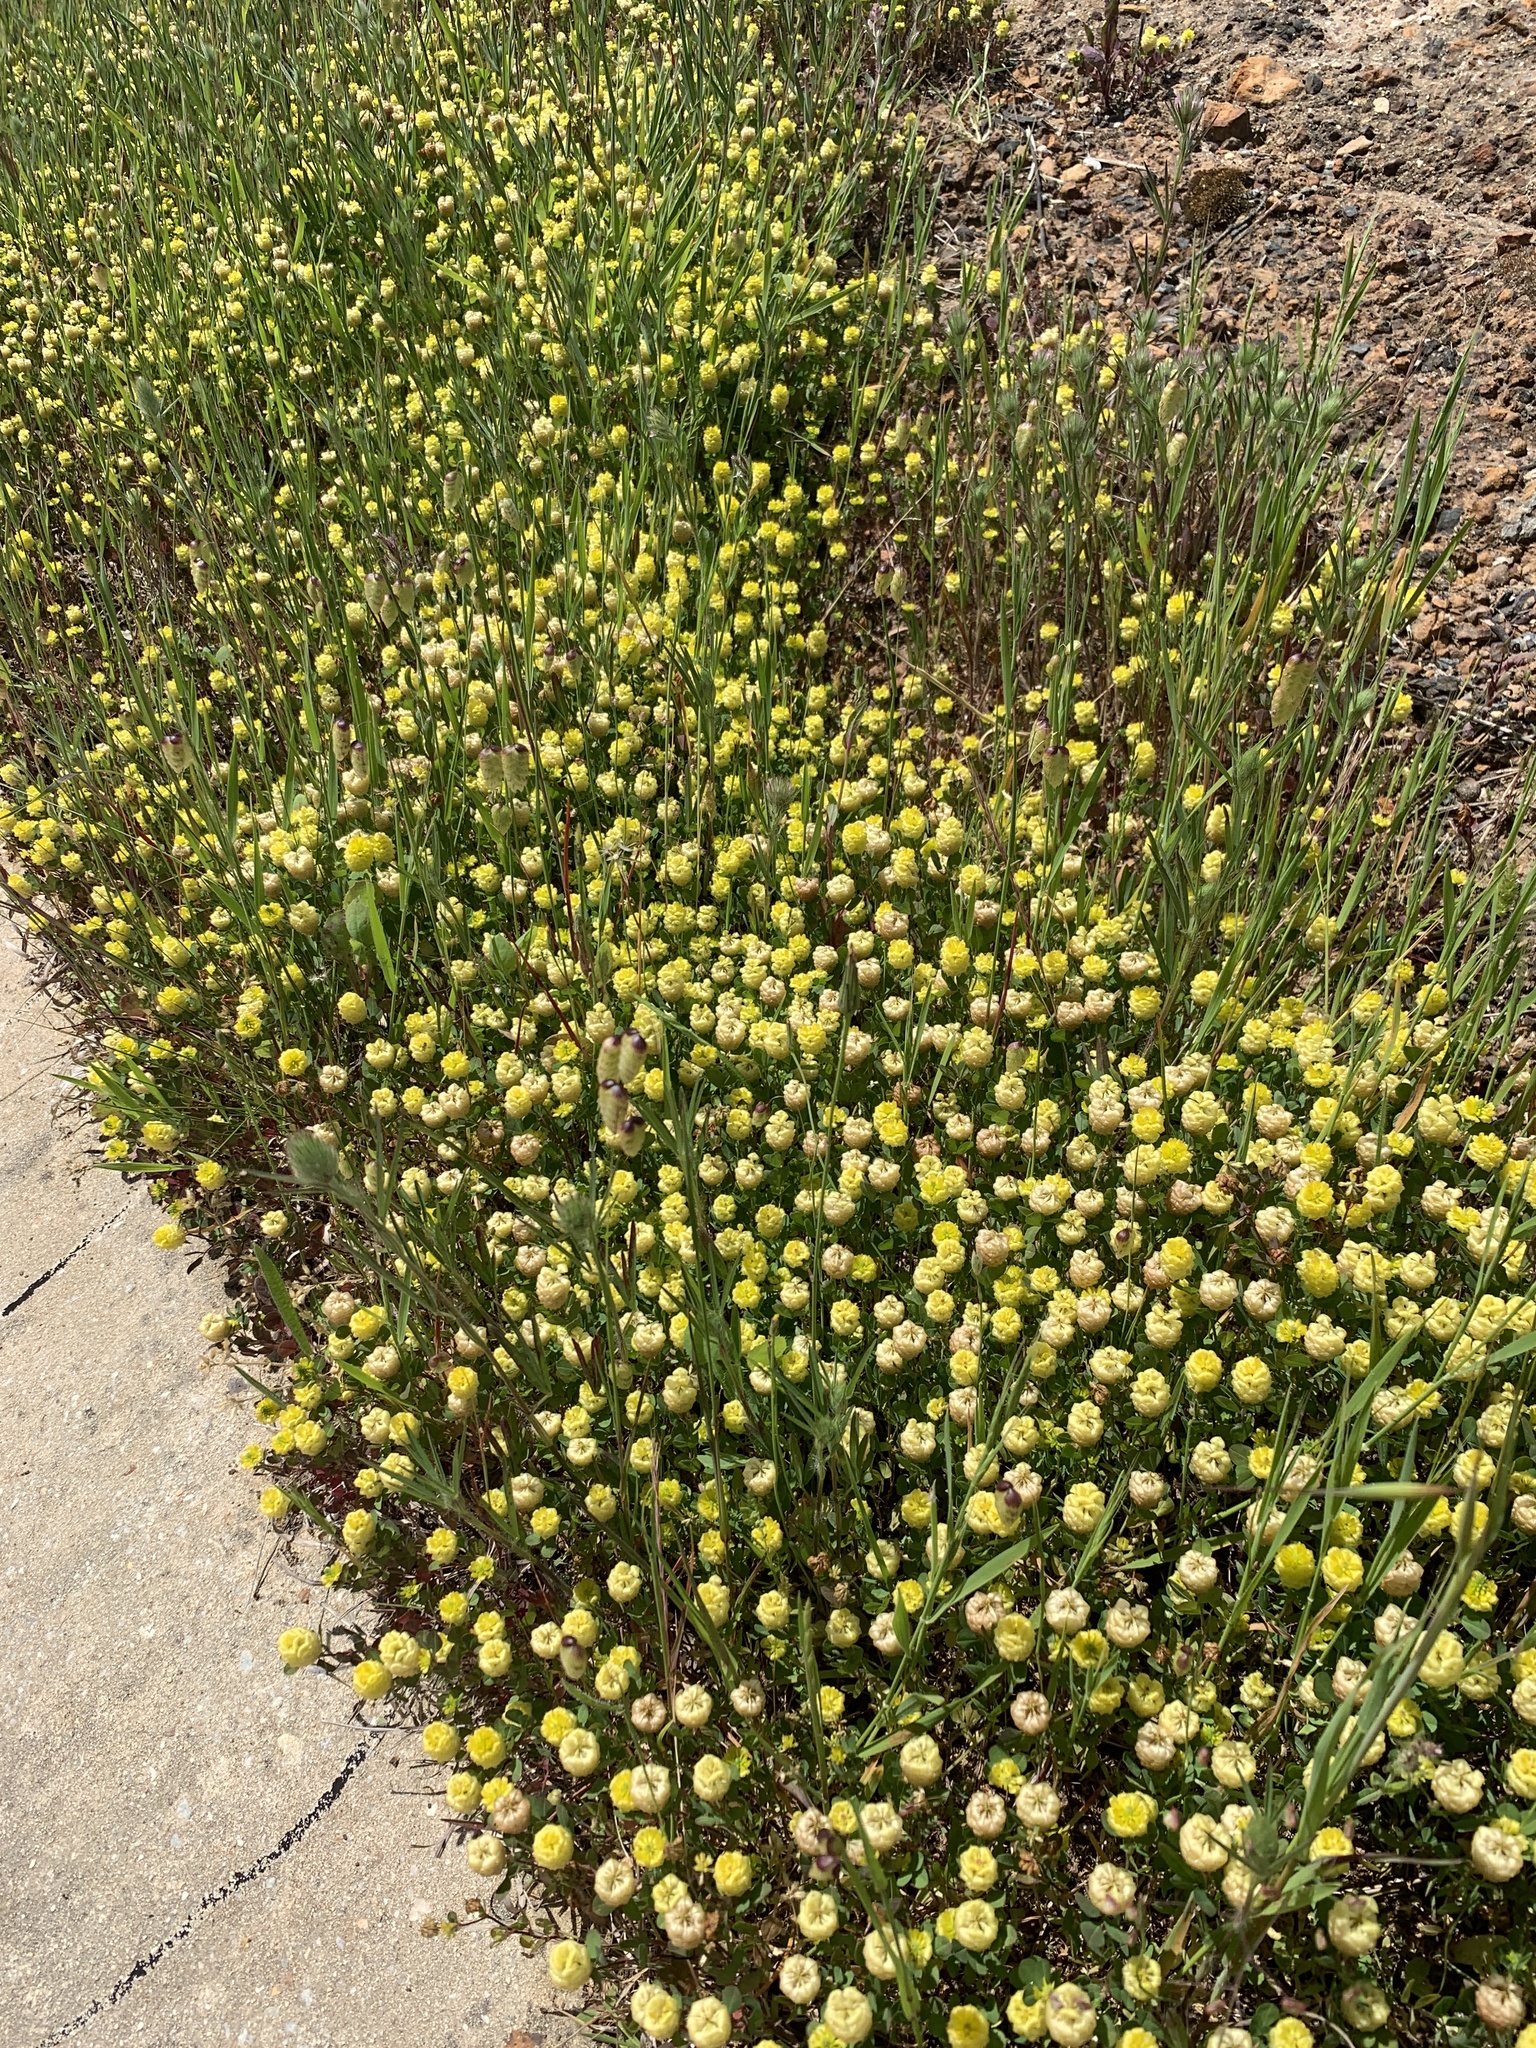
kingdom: Plantae
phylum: Tracheophyta
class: Magnoliopsida
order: Fabales
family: Fabaceae
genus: Trifolium
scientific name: Trifolium campestre
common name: Field clover
